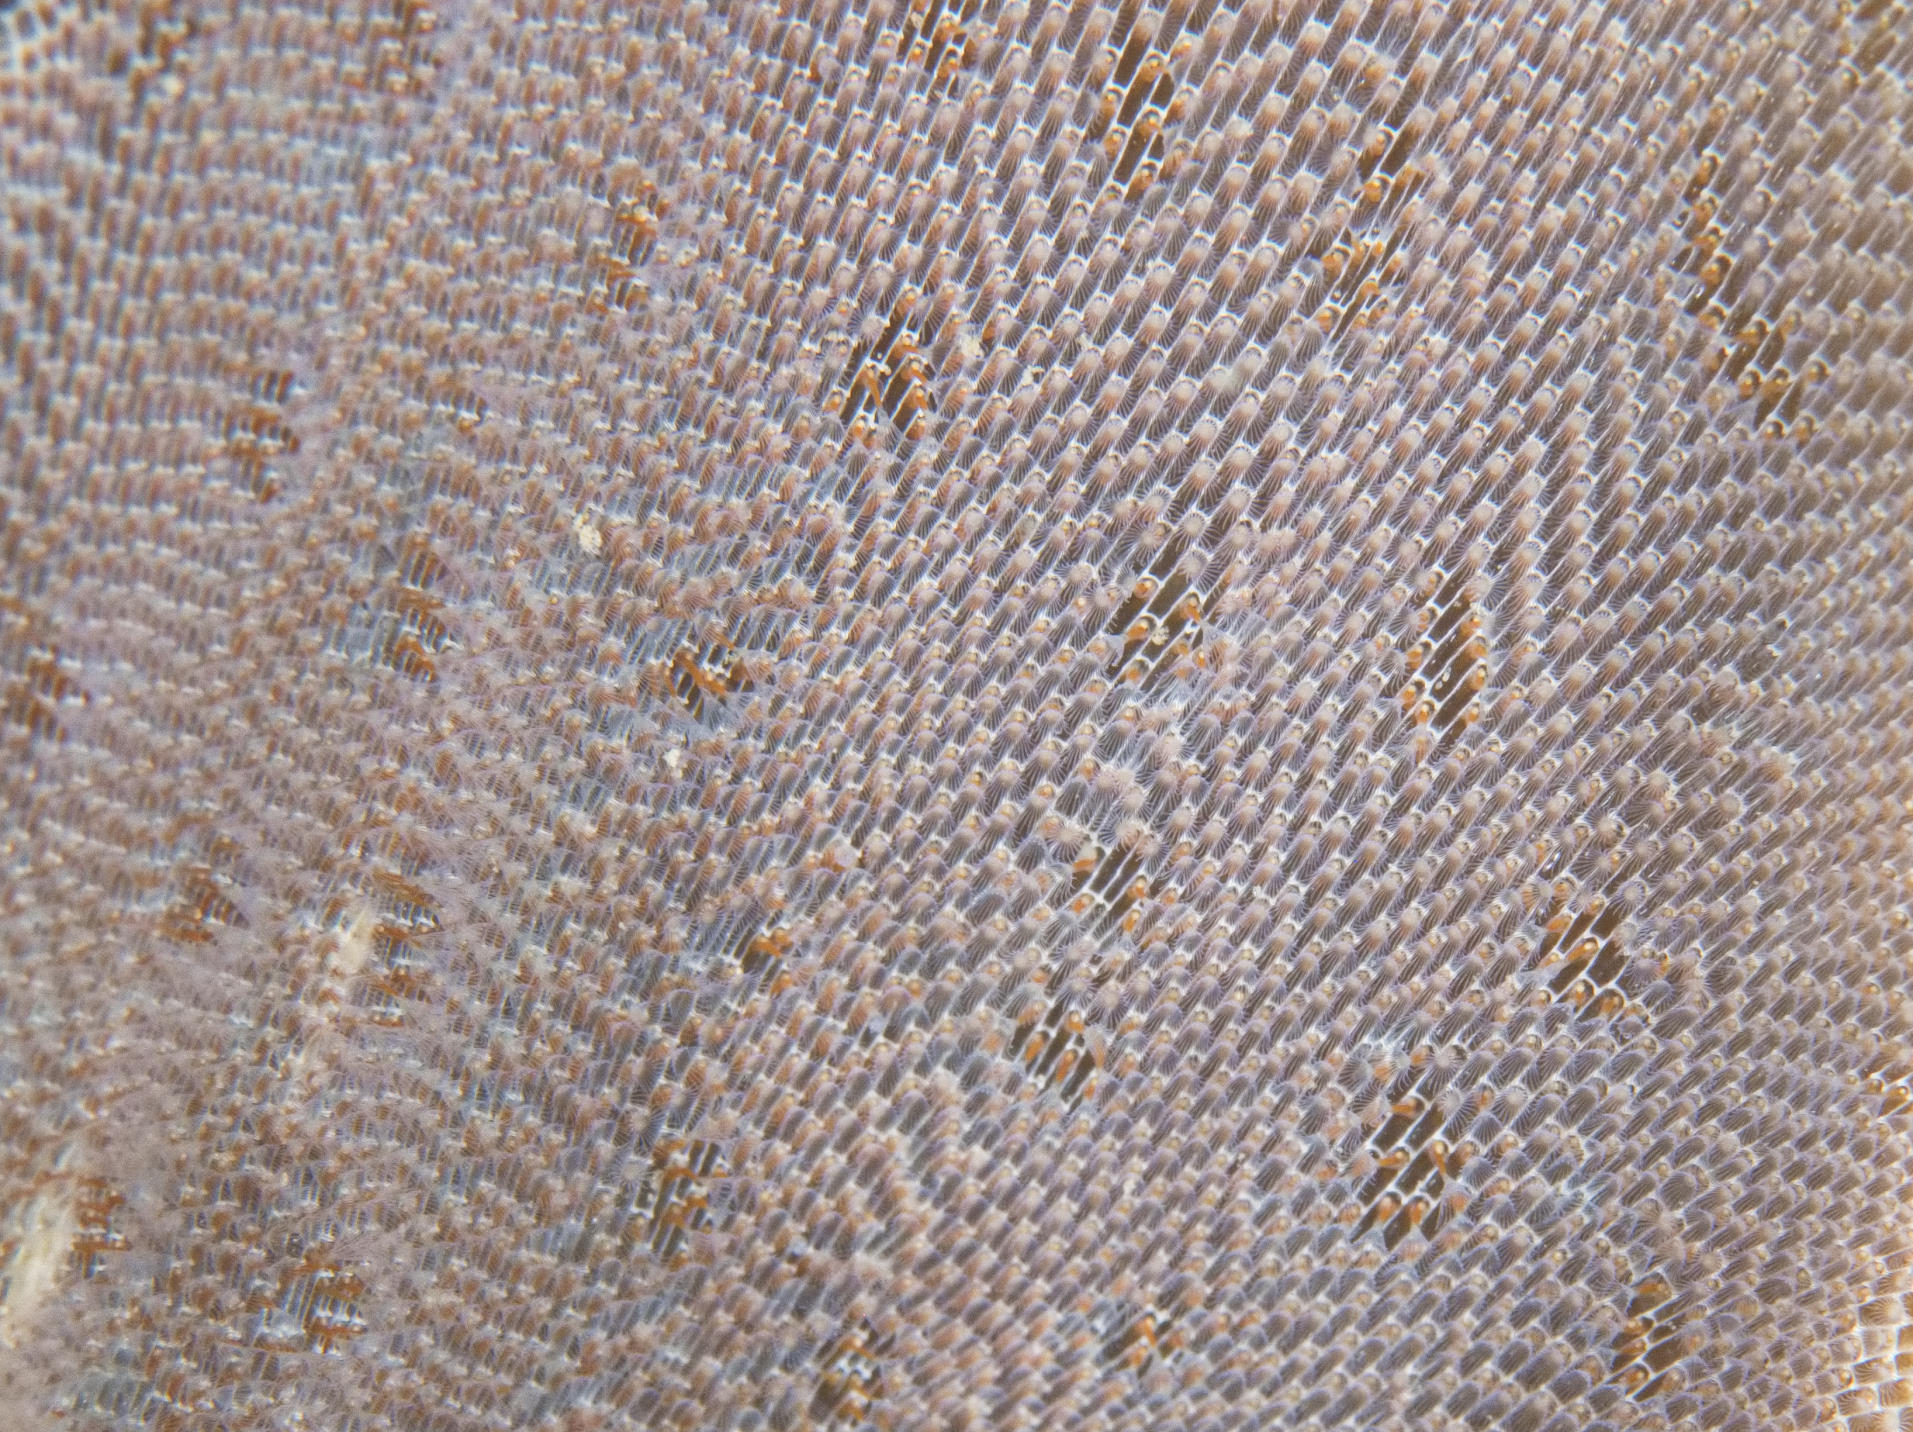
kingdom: Animalia
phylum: Bryozoa
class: Gymnolaemata
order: Cheilostomatida
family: Membraniporidae
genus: Membranipora
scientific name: Membranipora membranacea
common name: Sea mat
